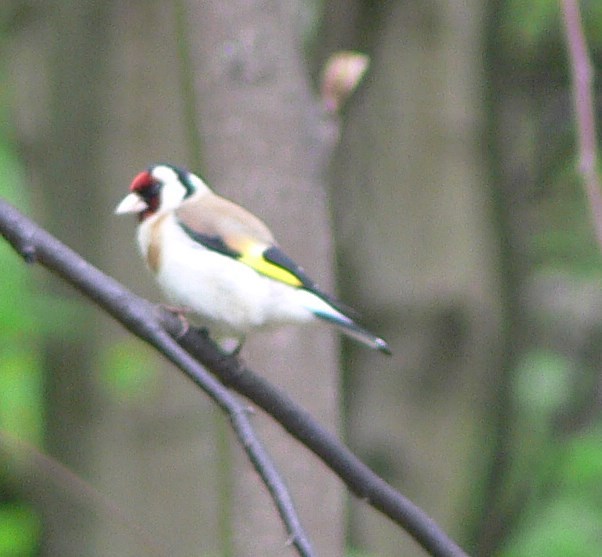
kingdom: Animalia
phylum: Chordata
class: Aves
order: Passeriformes
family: Fringillidae
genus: Carduelis
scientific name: Carduelis carduelis
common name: European goldfinch
